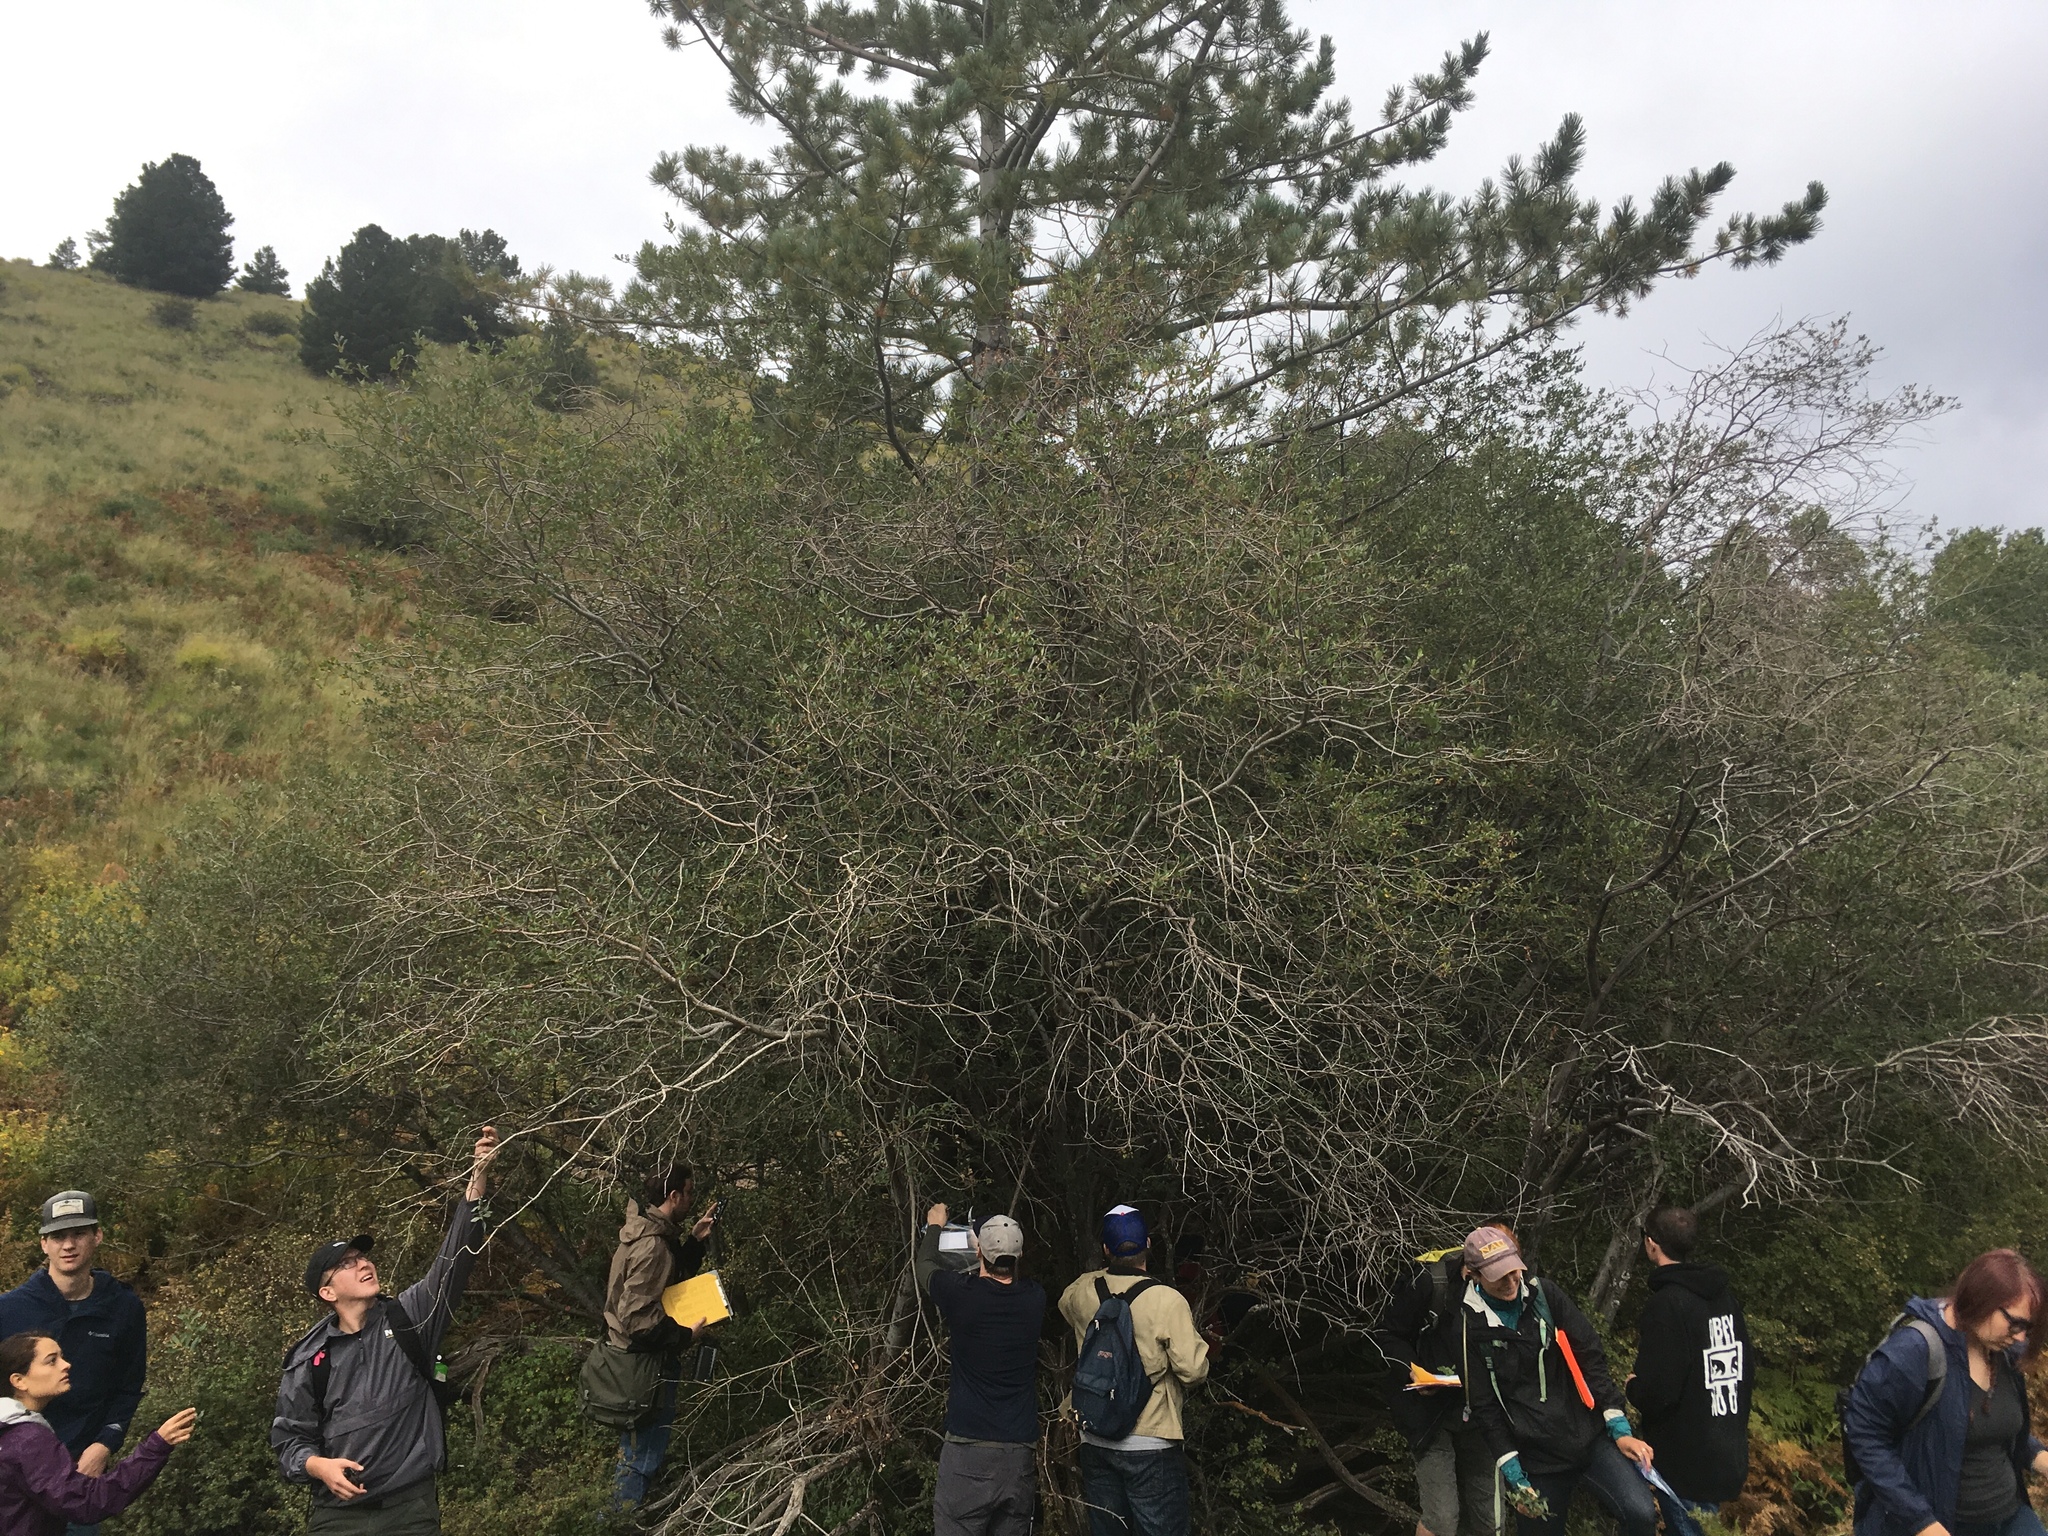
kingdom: Plantae
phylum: Tracheophyta
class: Magnoliopsida
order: Malpighiales
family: Salicaceae
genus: Salix
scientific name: Salix bebbiana
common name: Bebb's willow
